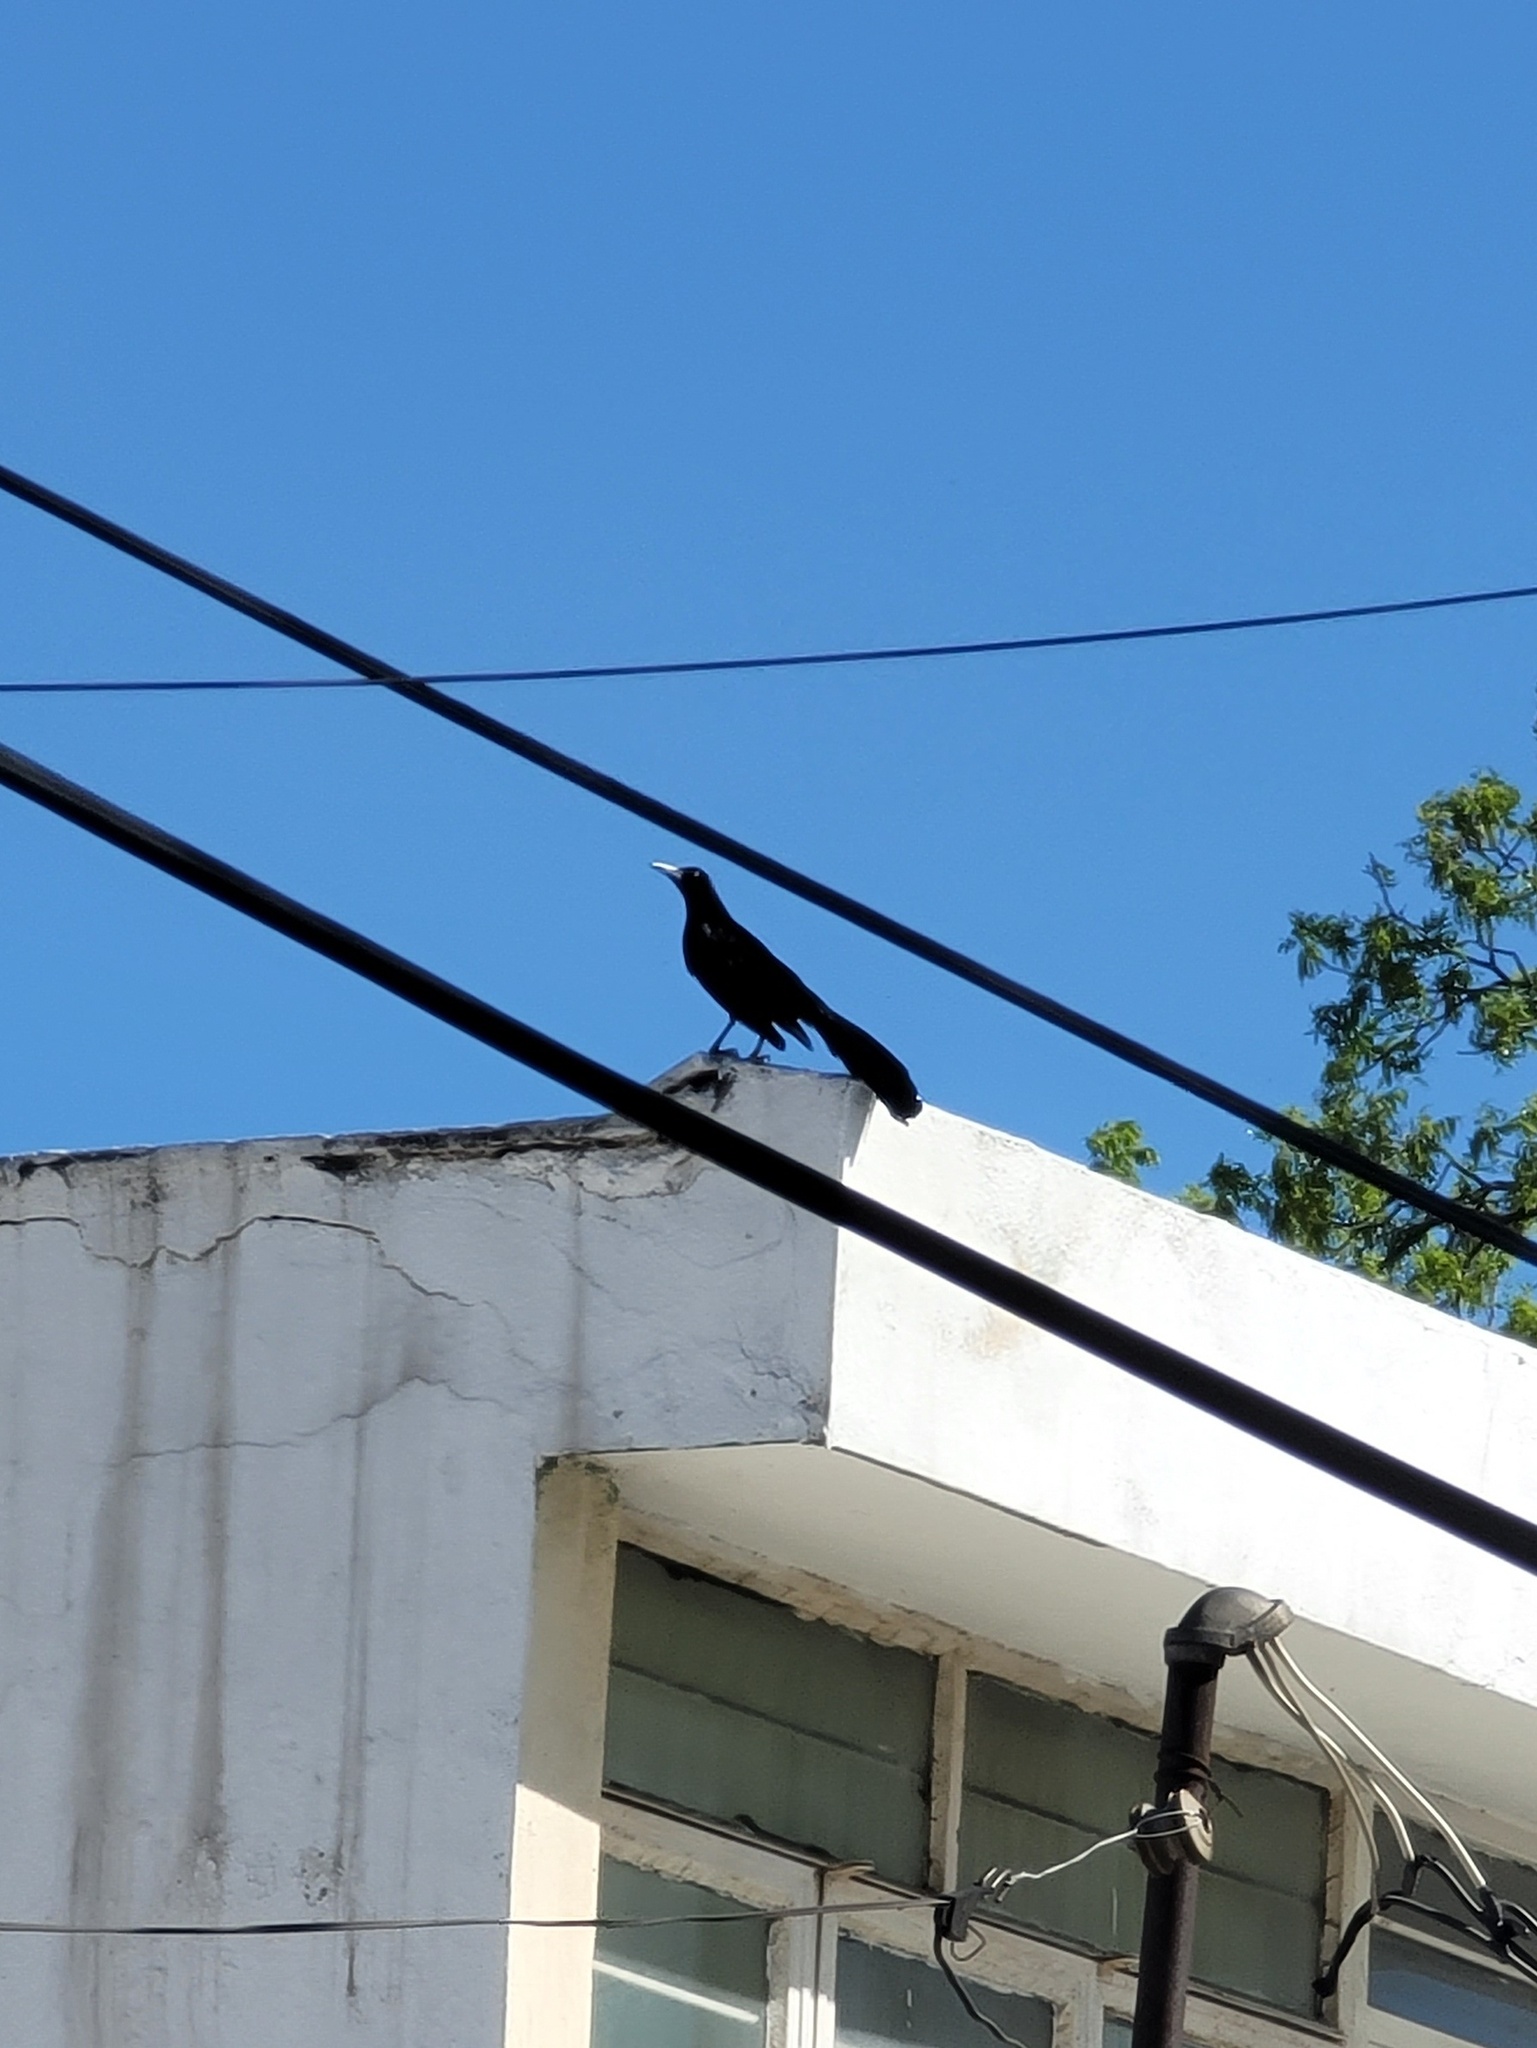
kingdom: Animalia
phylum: Chordata
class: Aves
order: Passeriformes
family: Icteridae
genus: Quiscalus
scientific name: Quiscalus mexicanus
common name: Great-tailed grackle
